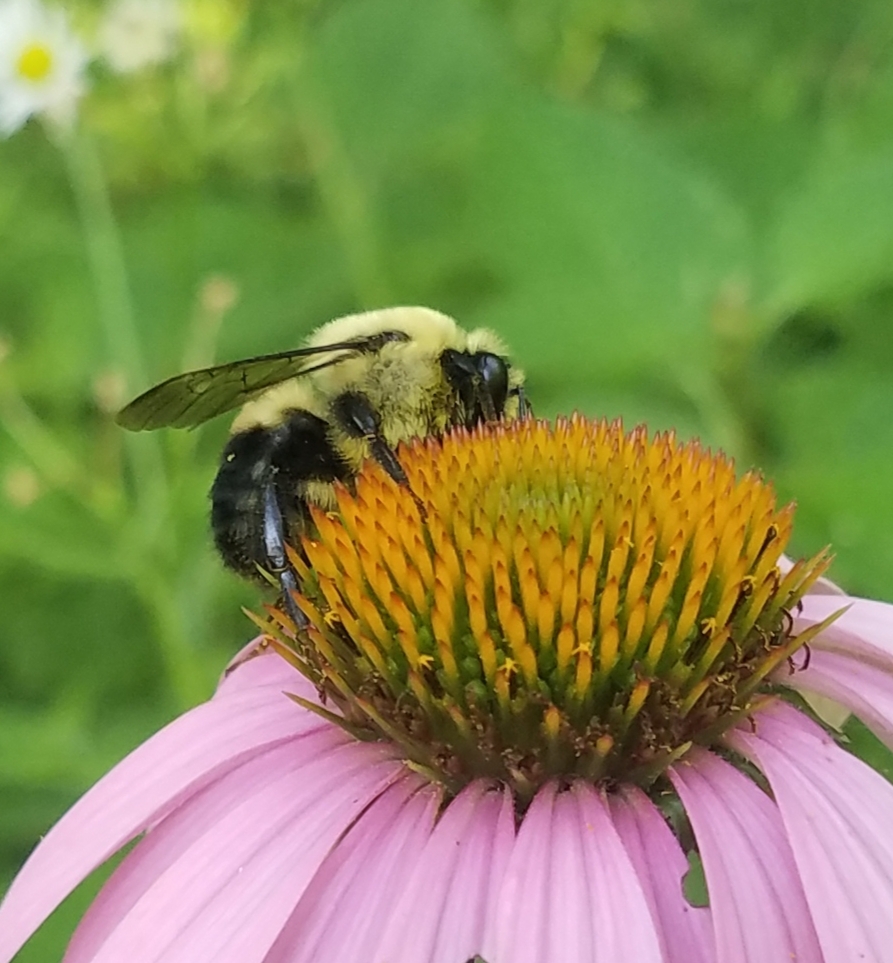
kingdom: Animalia
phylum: Arthropoda
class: Insecta
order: Hymenoptera
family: Apidae
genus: Bombus
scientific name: Bombus griseocollis
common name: Brown-belted bumble bee
